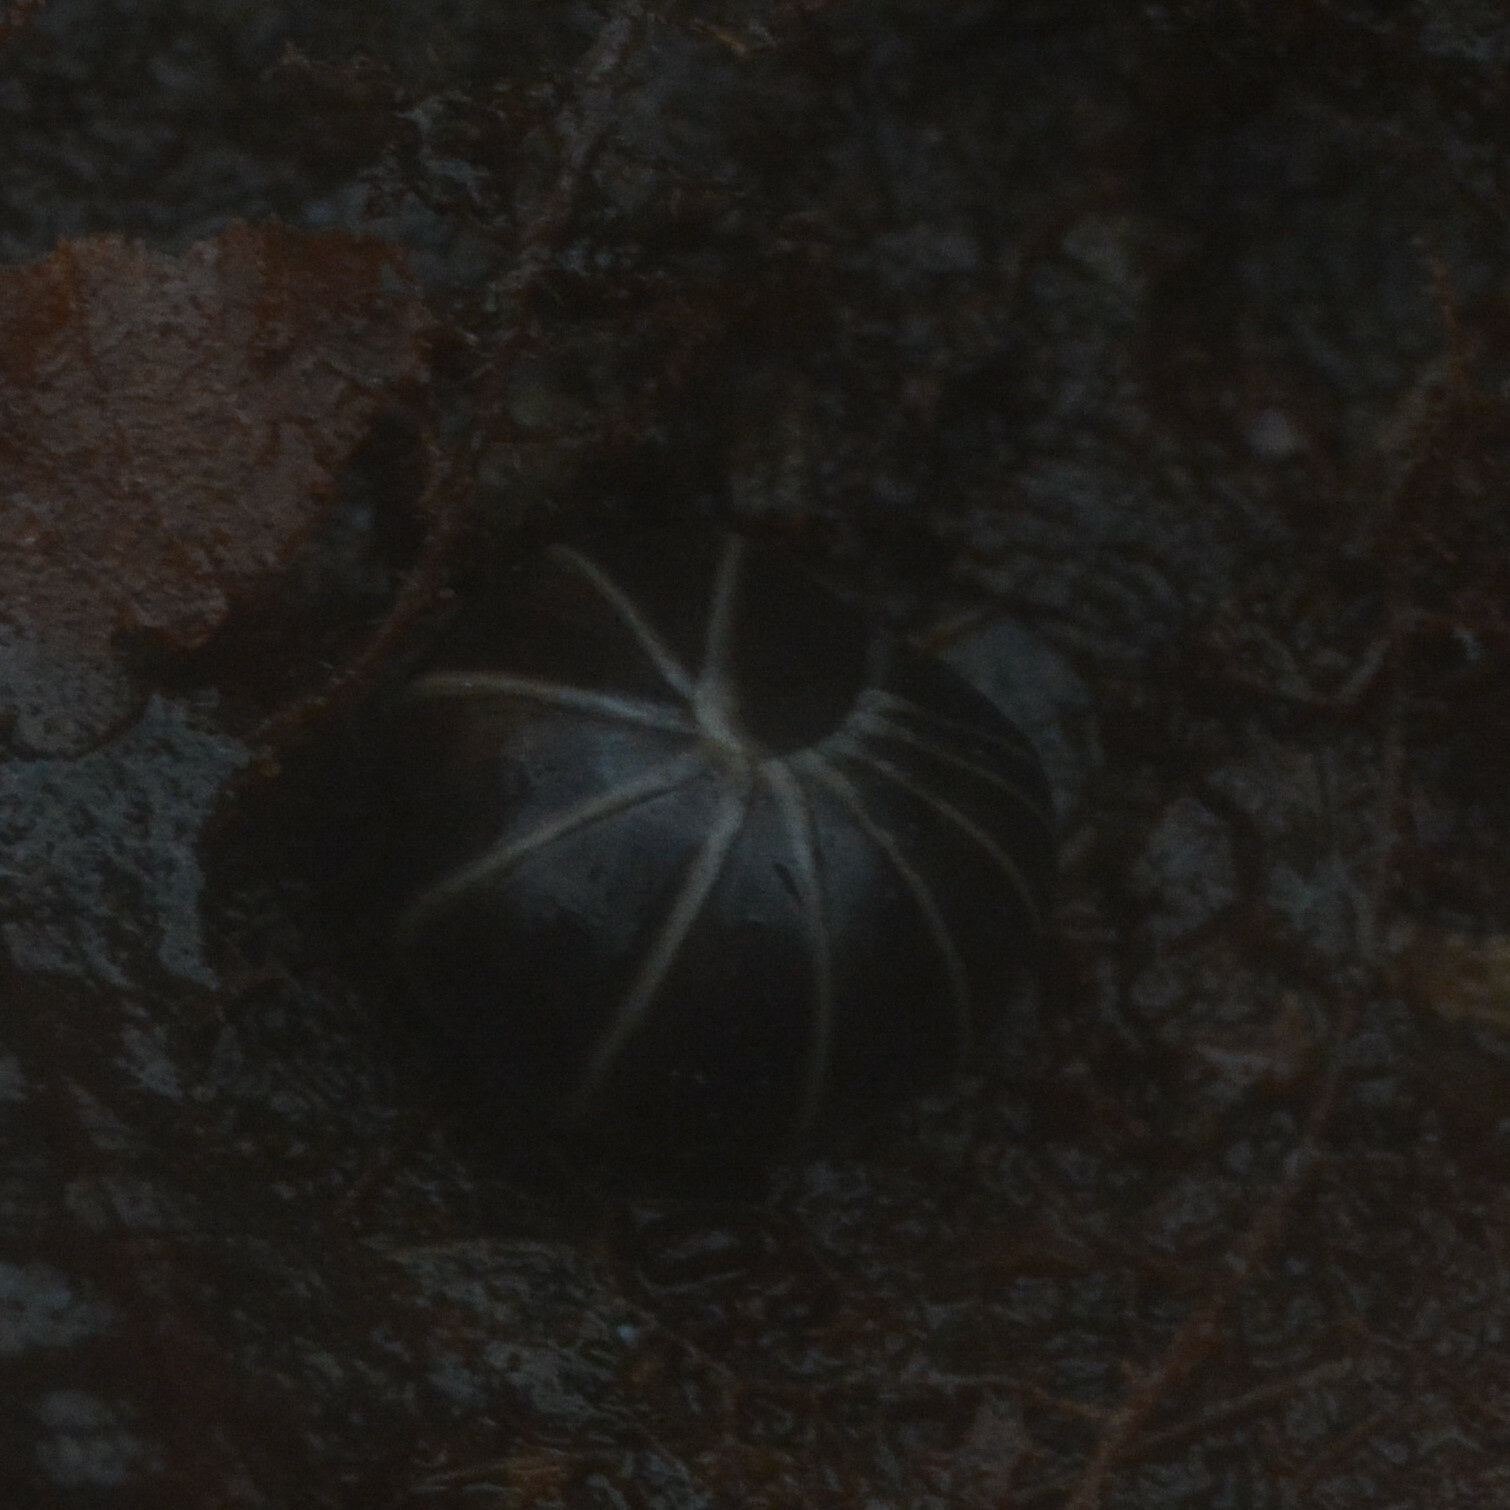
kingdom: Animalia
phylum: Arthropoda
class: Diplopoda
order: Glomerida
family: Glomeridae
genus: Glomeris
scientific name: Glomeris marginata
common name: Bordered pill millipede
